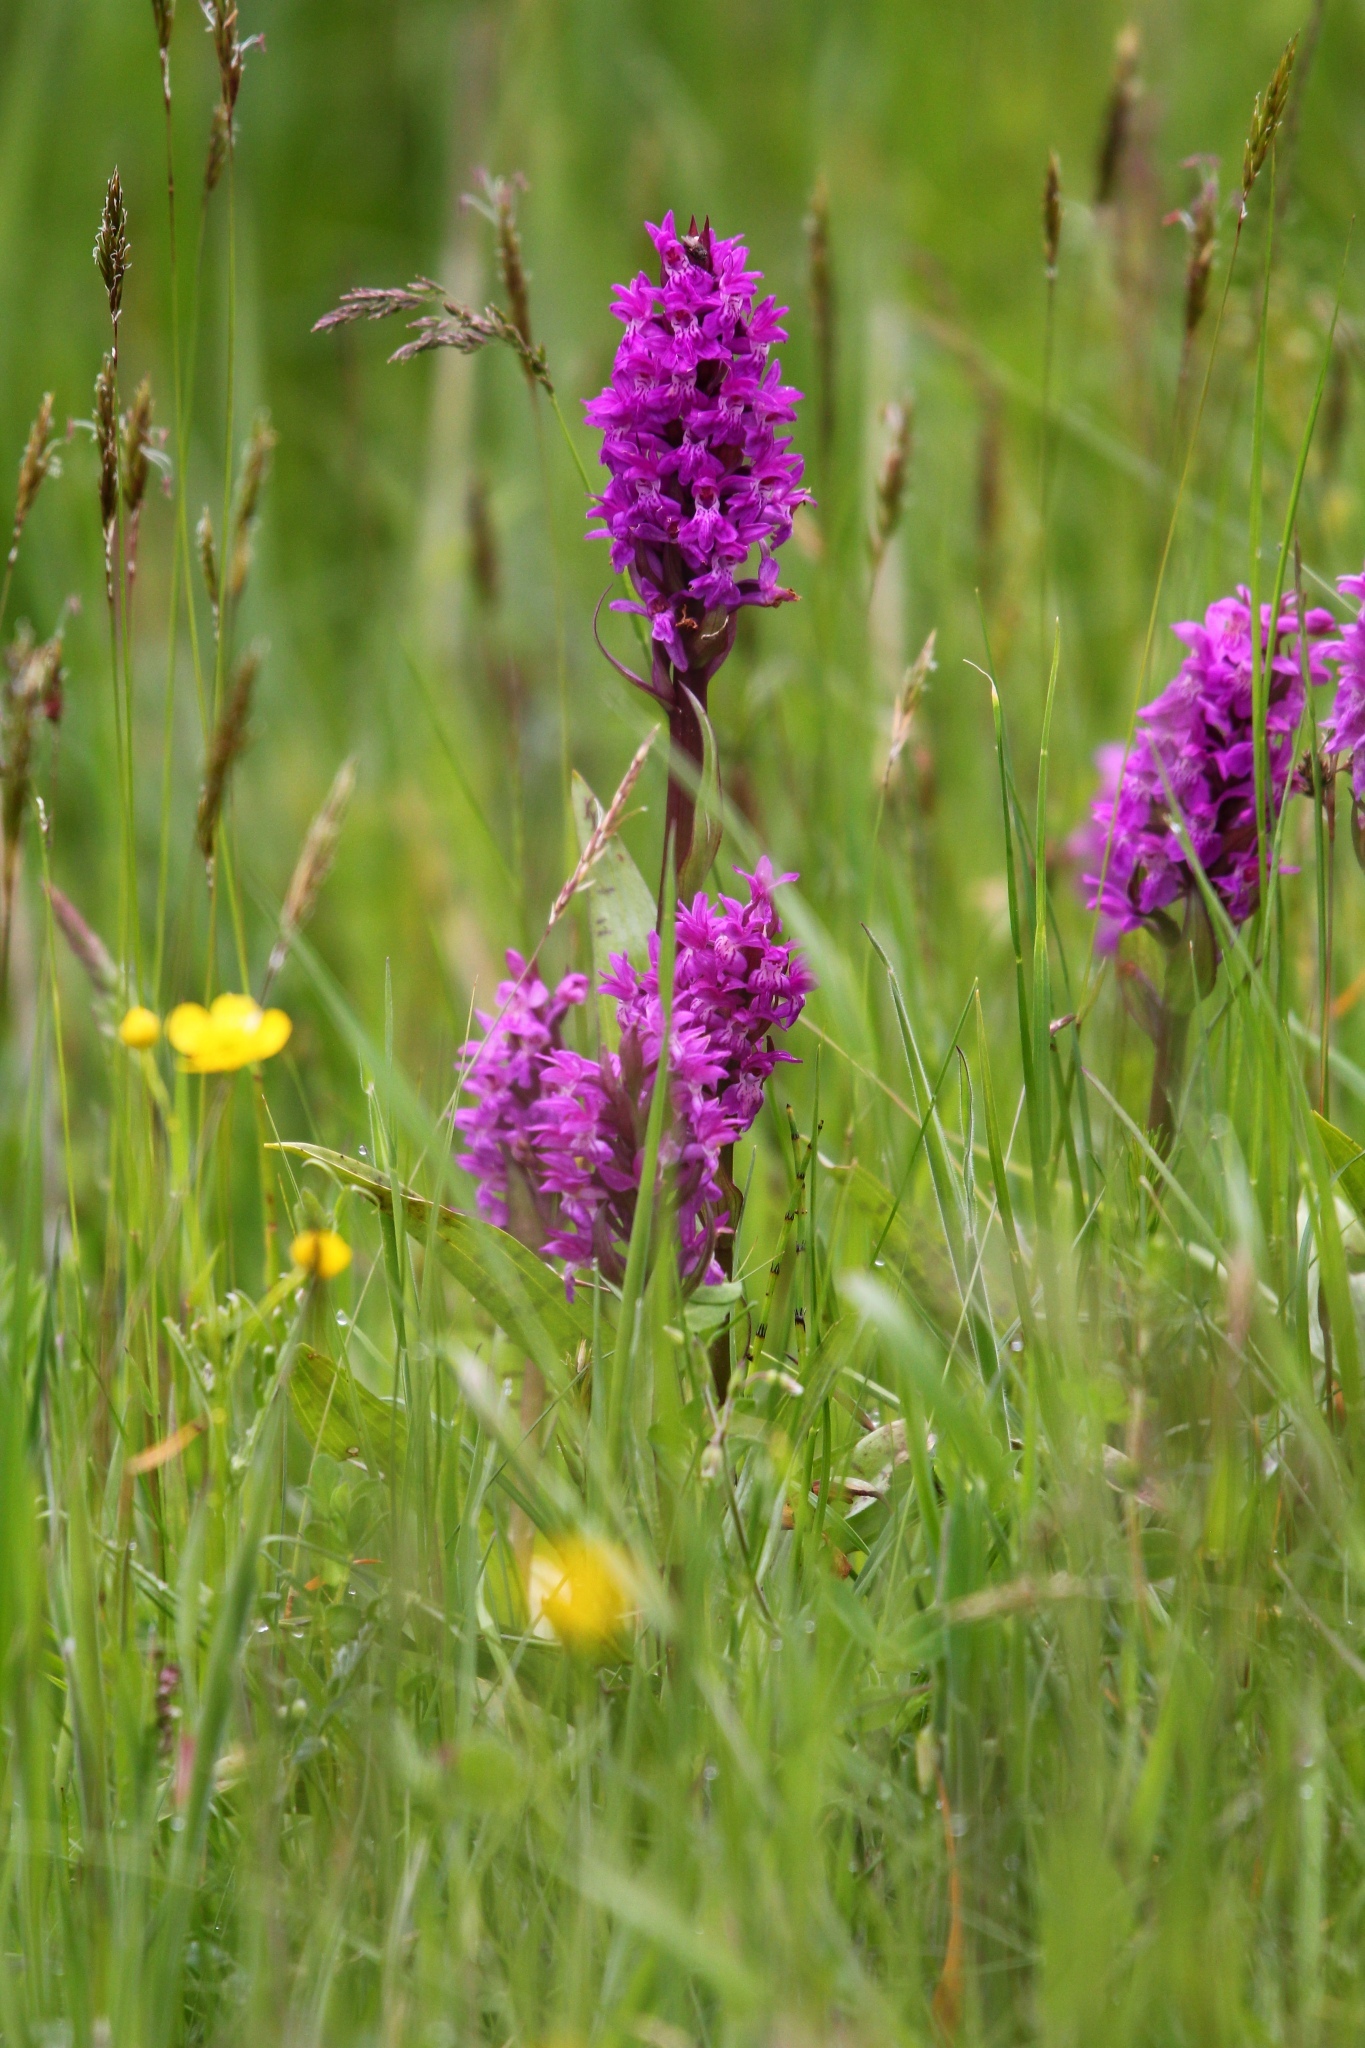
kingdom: Plantae
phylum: Tracheophyta
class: Liliopsida
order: Asparagales
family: Orchidaceae
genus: Dactylorhiza
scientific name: Dactylorhiza majalis
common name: Marsh orchid
